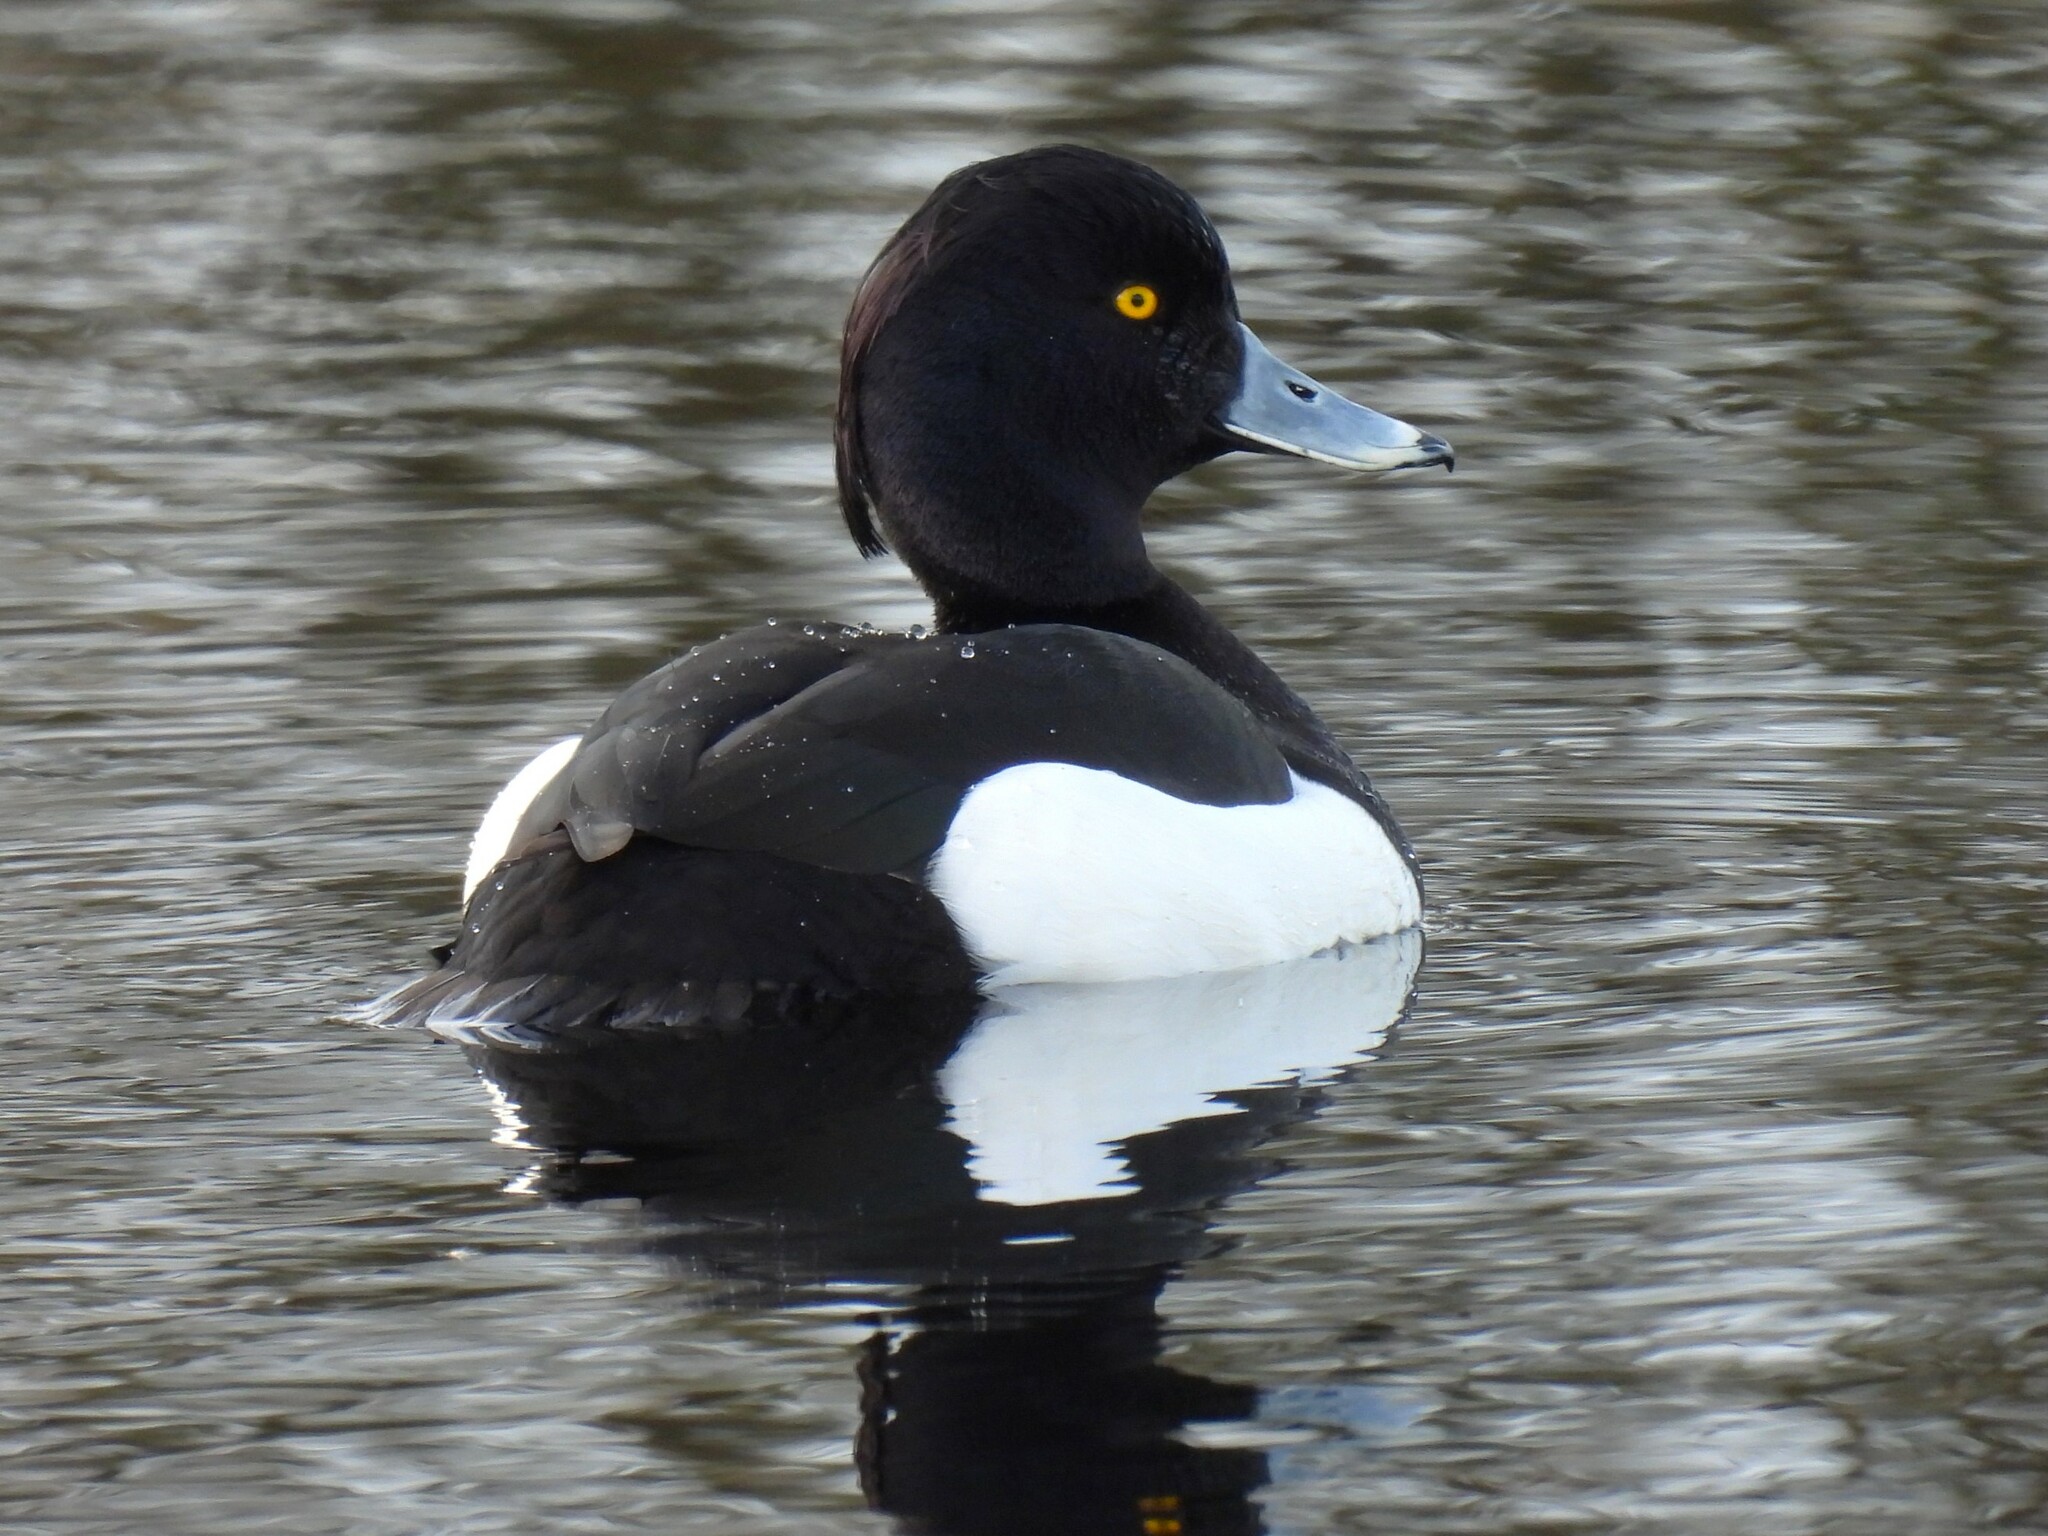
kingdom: Animalia
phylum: Chordata
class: Aves
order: Anseriformes
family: Anatidae
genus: Aythya
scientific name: Aythya fuligula
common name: Tufted duck
